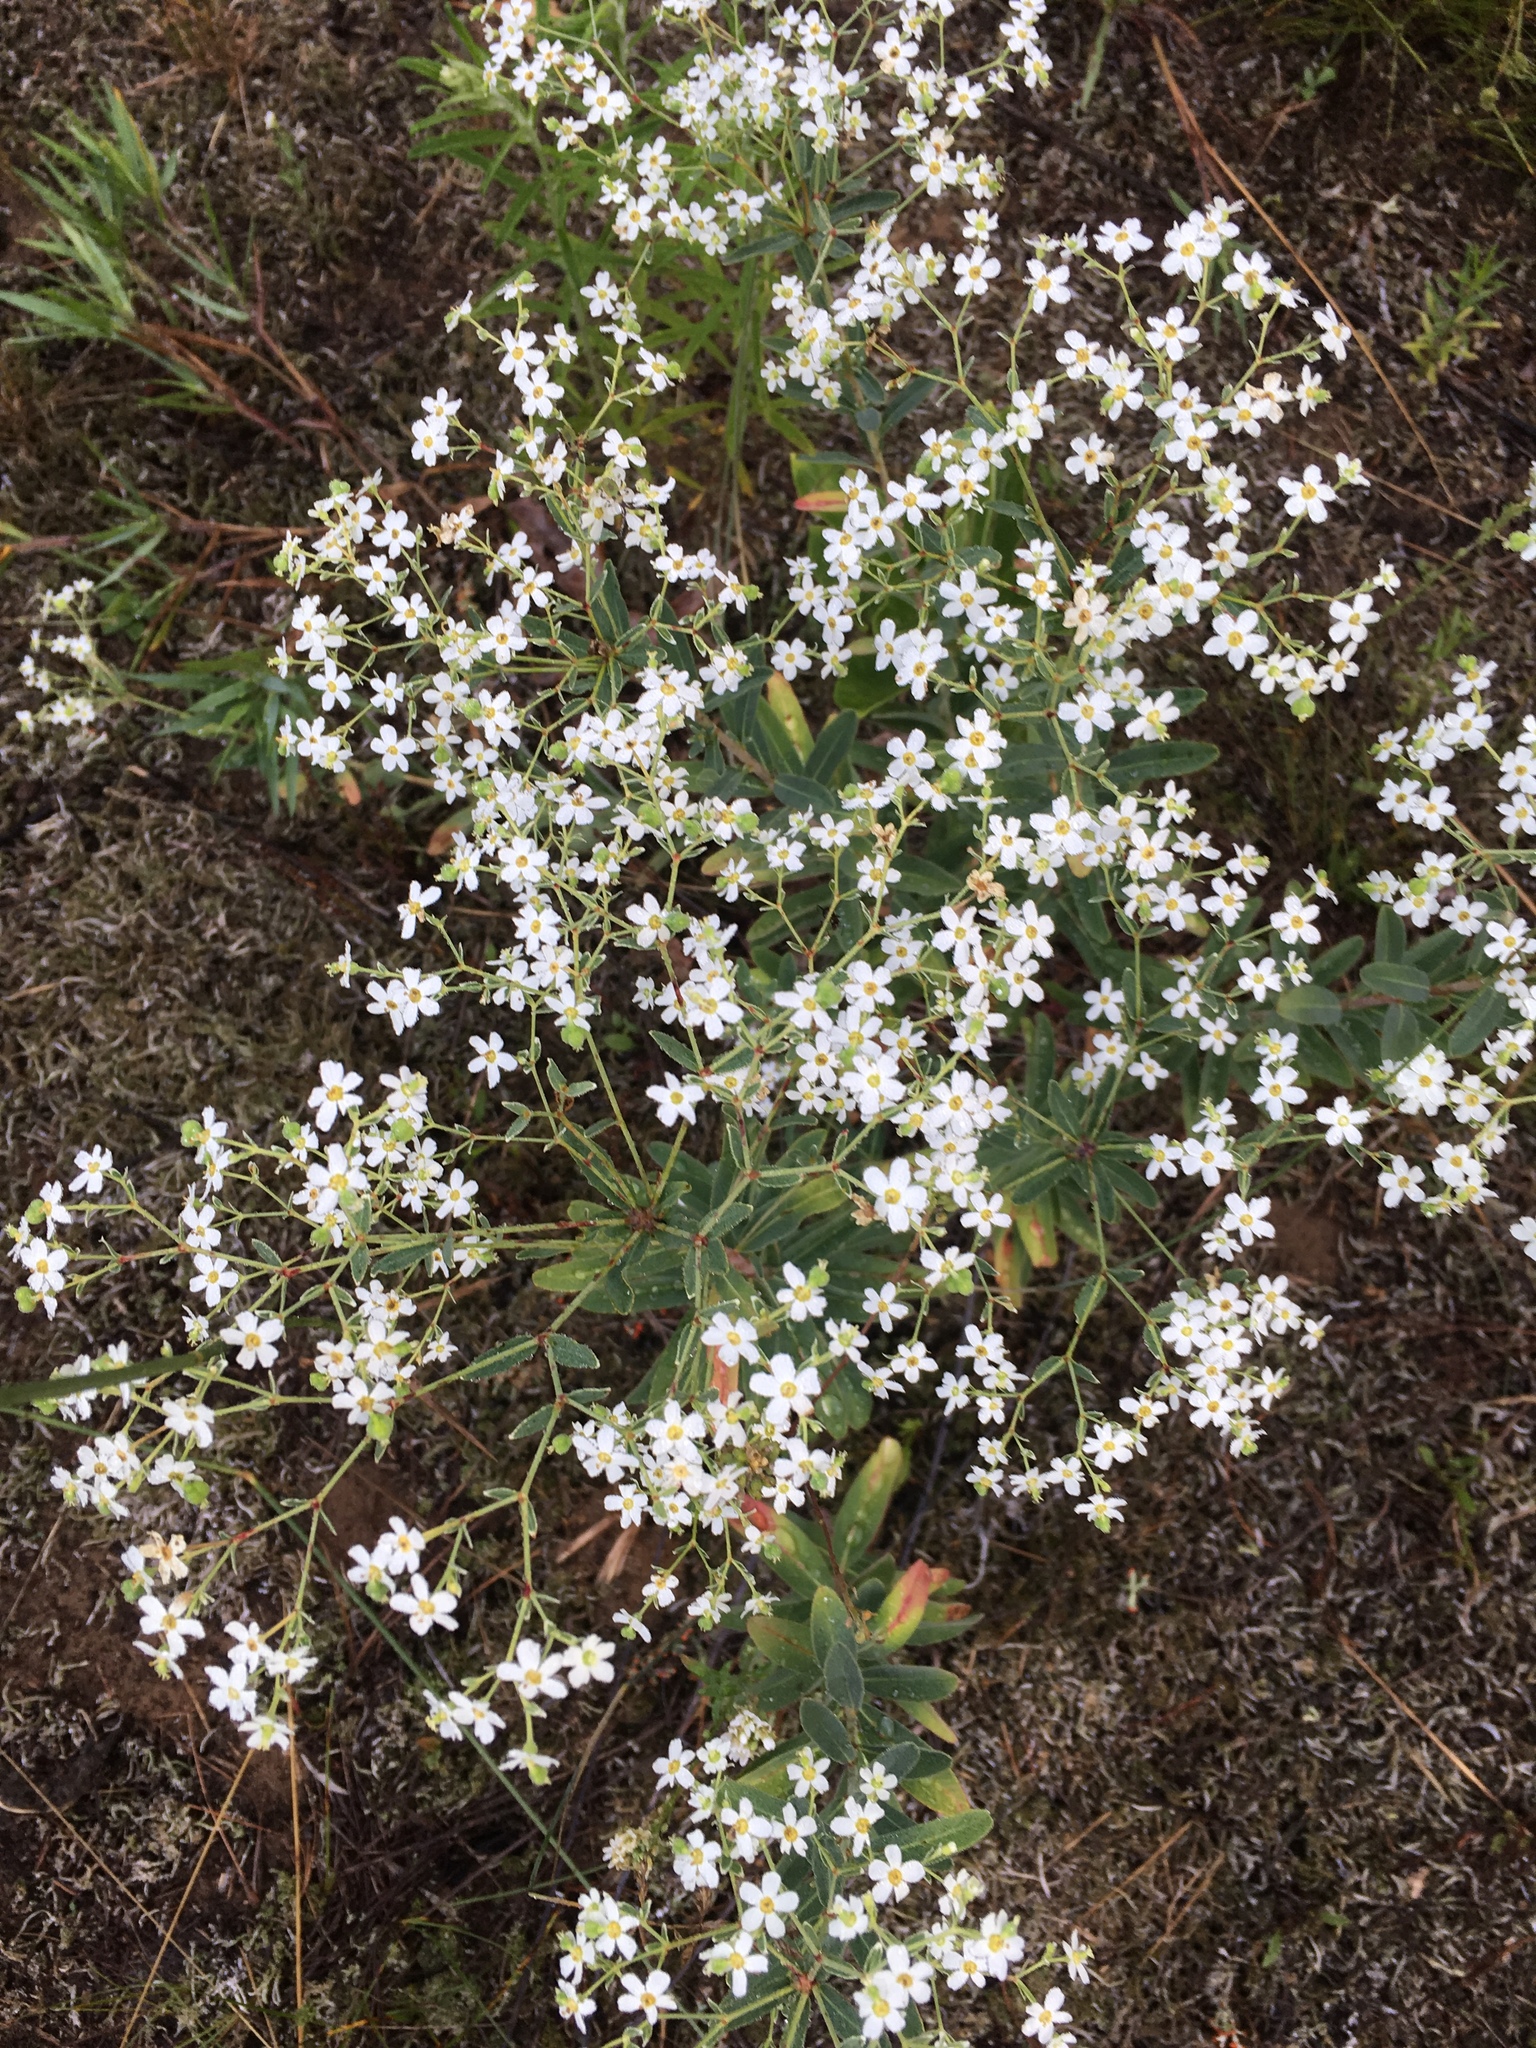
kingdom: Plantae
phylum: Tracheophyta
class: Magnoliopsida
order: Malpighiales
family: Euphorbiaceae
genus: Euphorbia
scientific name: Euphorbia corollata
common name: Flowering spurge
